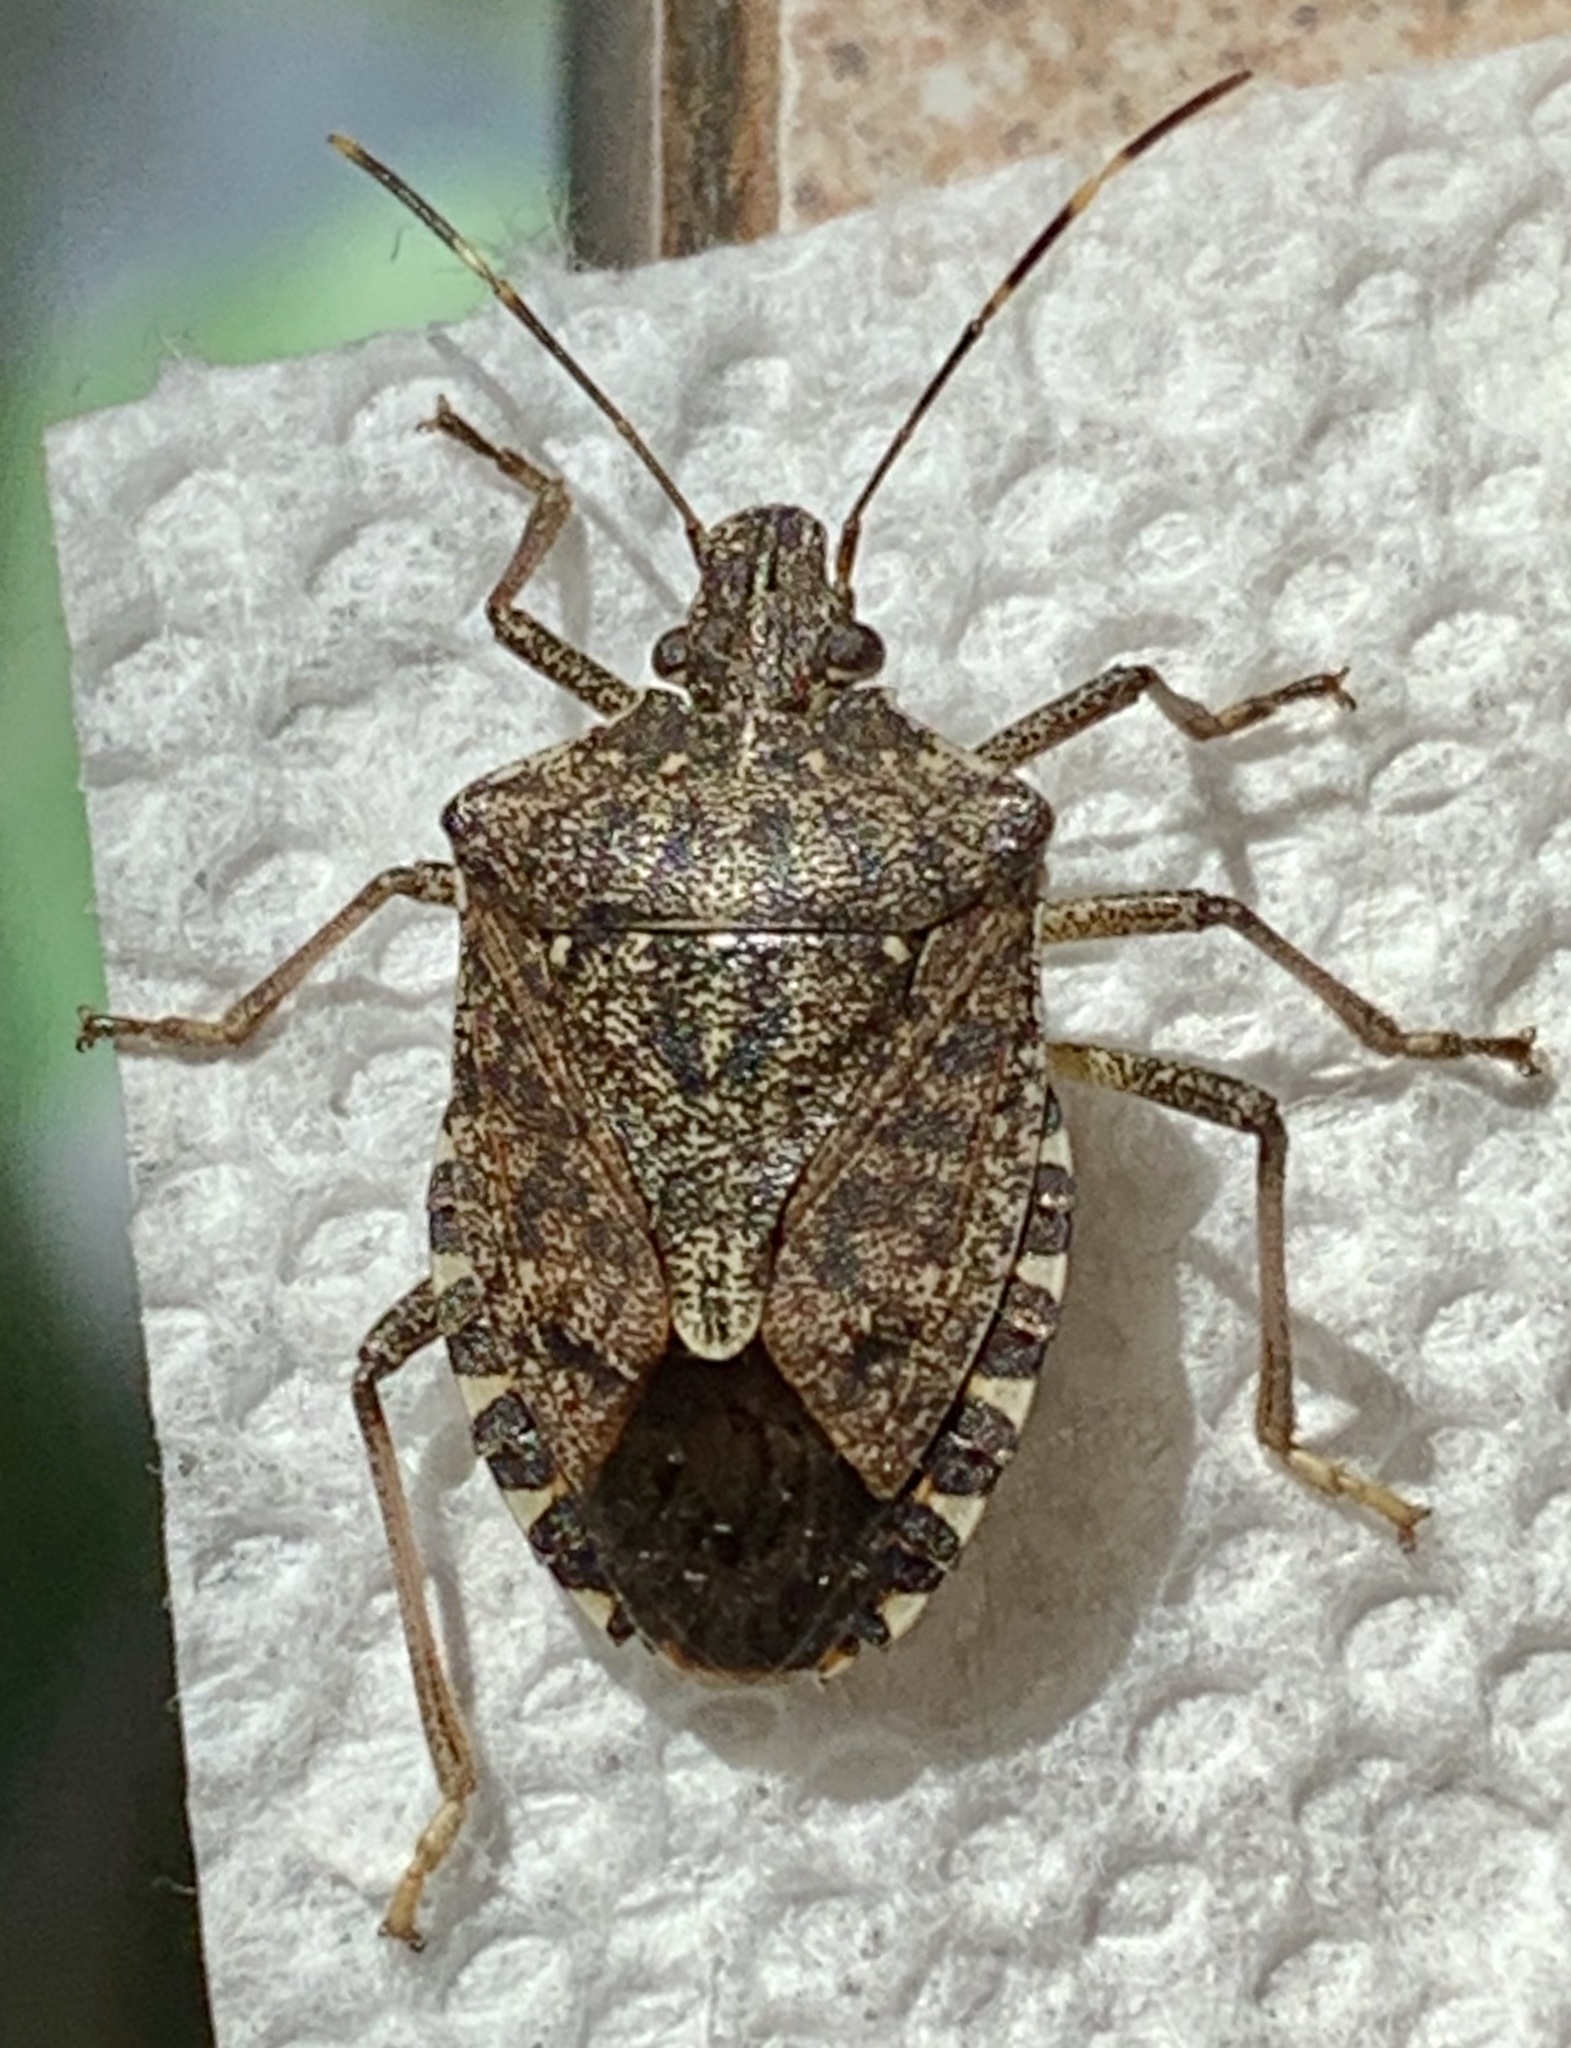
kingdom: Animalia
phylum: Arthropoda
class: Insecta
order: Hemiptera
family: Pentatomidae
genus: Euschistus
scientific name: Euschistus tristigmus
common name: Dusky stink bug
